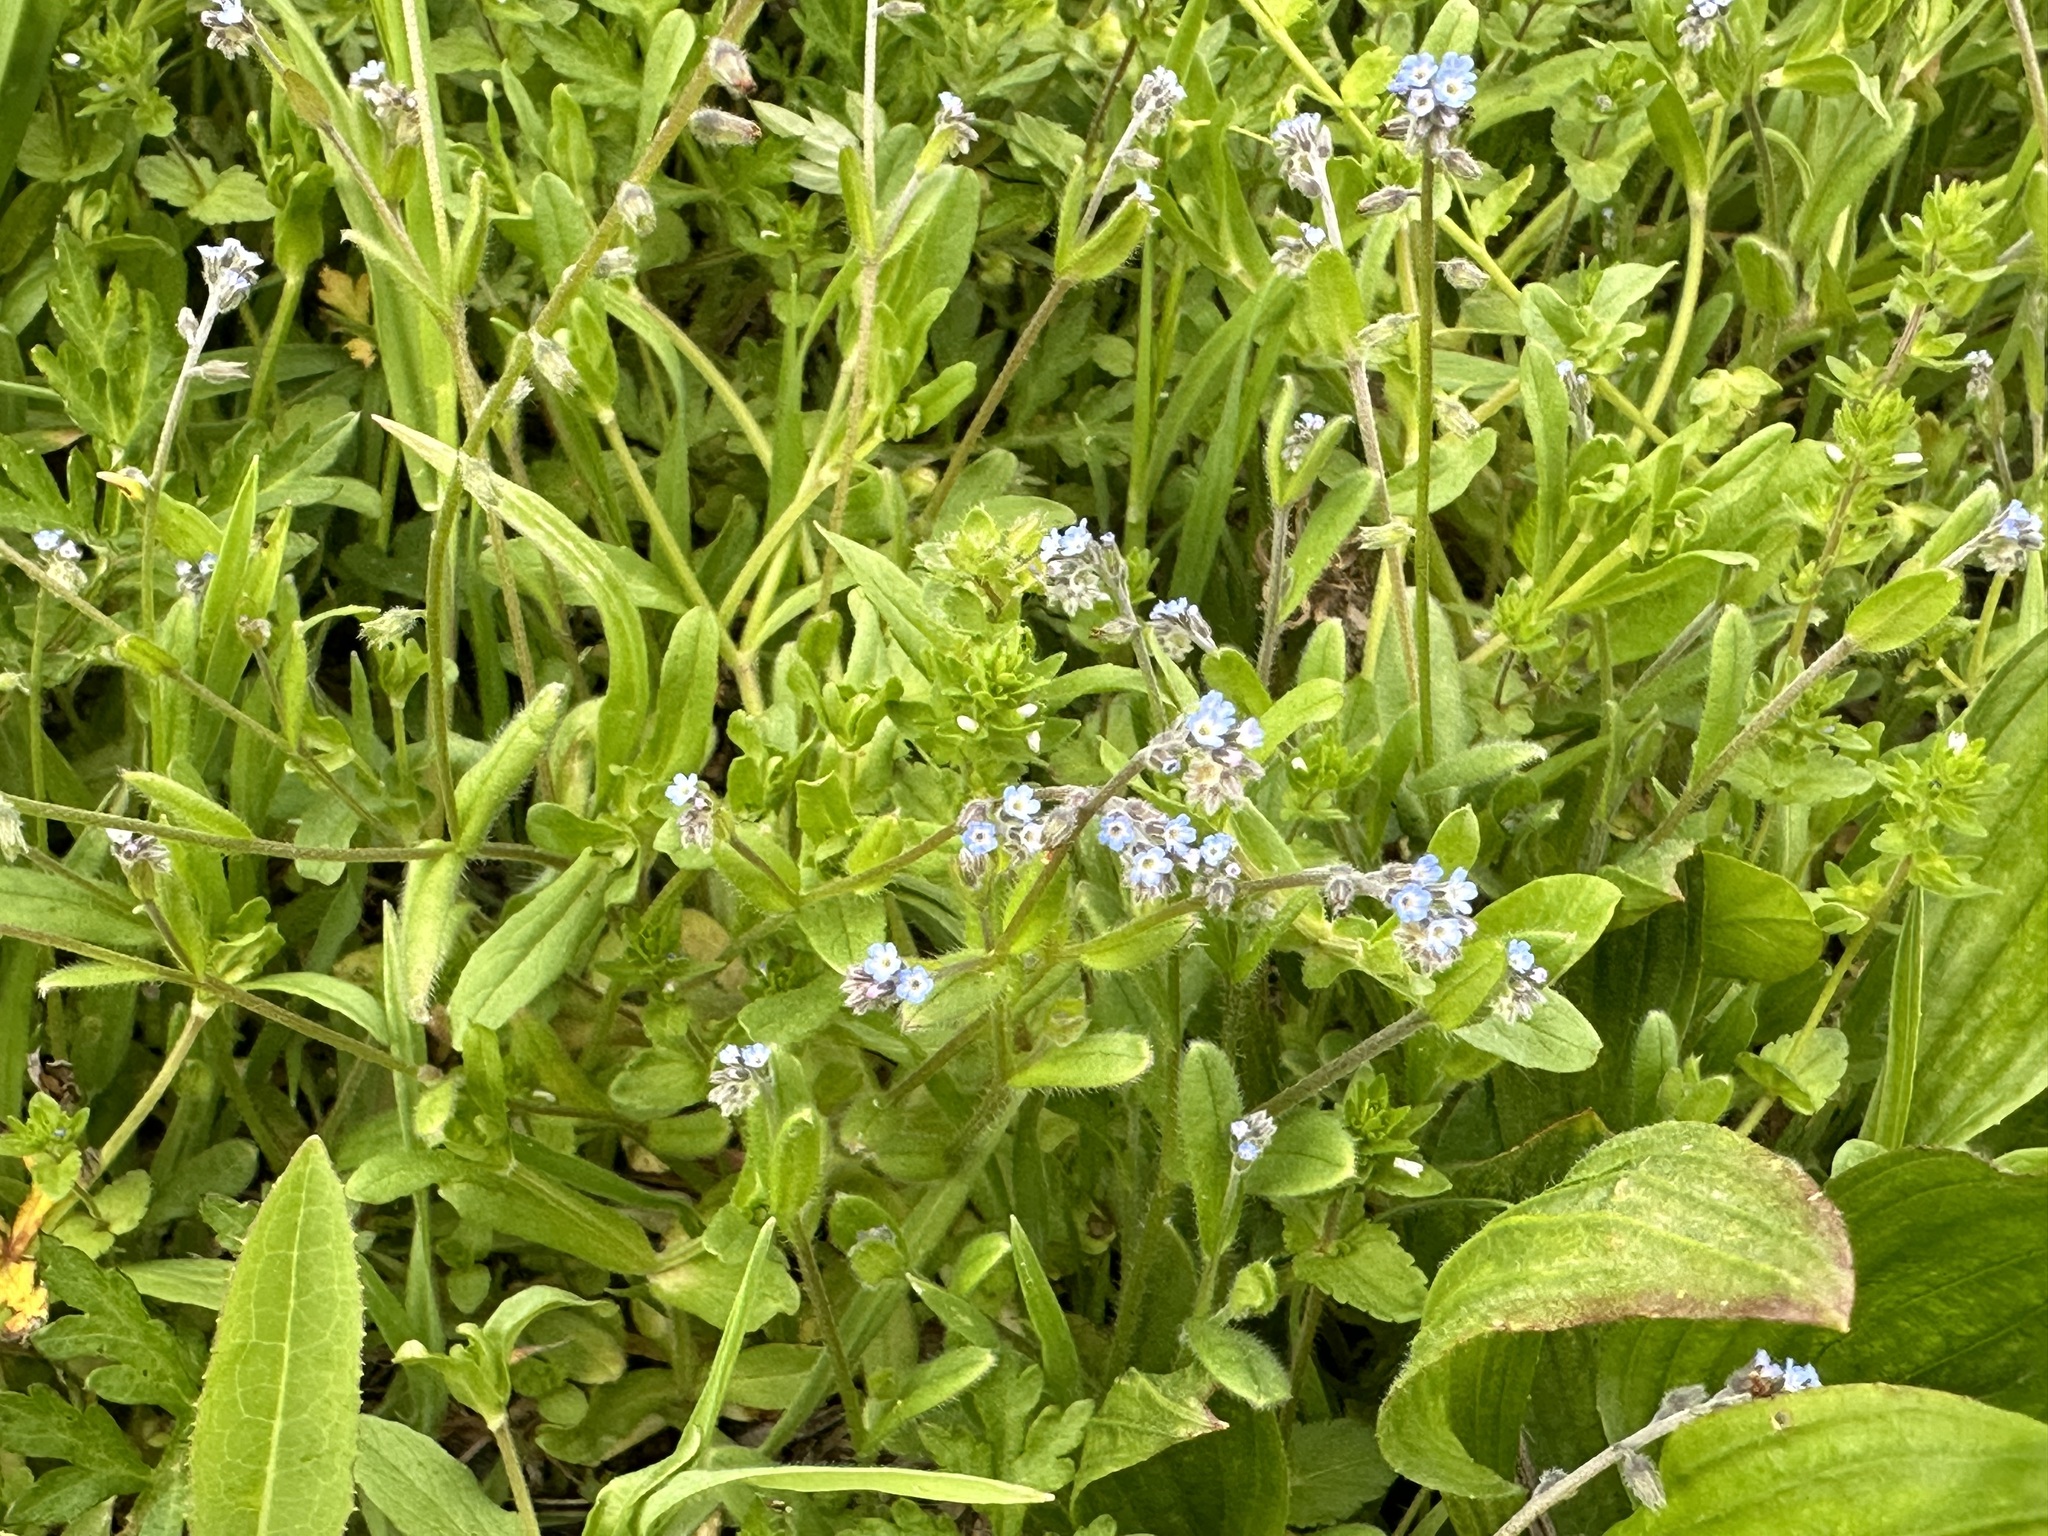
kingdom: Plantae
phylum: Tracheophyta
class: Magnoliopsida
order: Boraginales
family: Boraginaceae
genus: Myosotis
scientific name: Myosotis ramosissima
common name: Early forget-me-not
